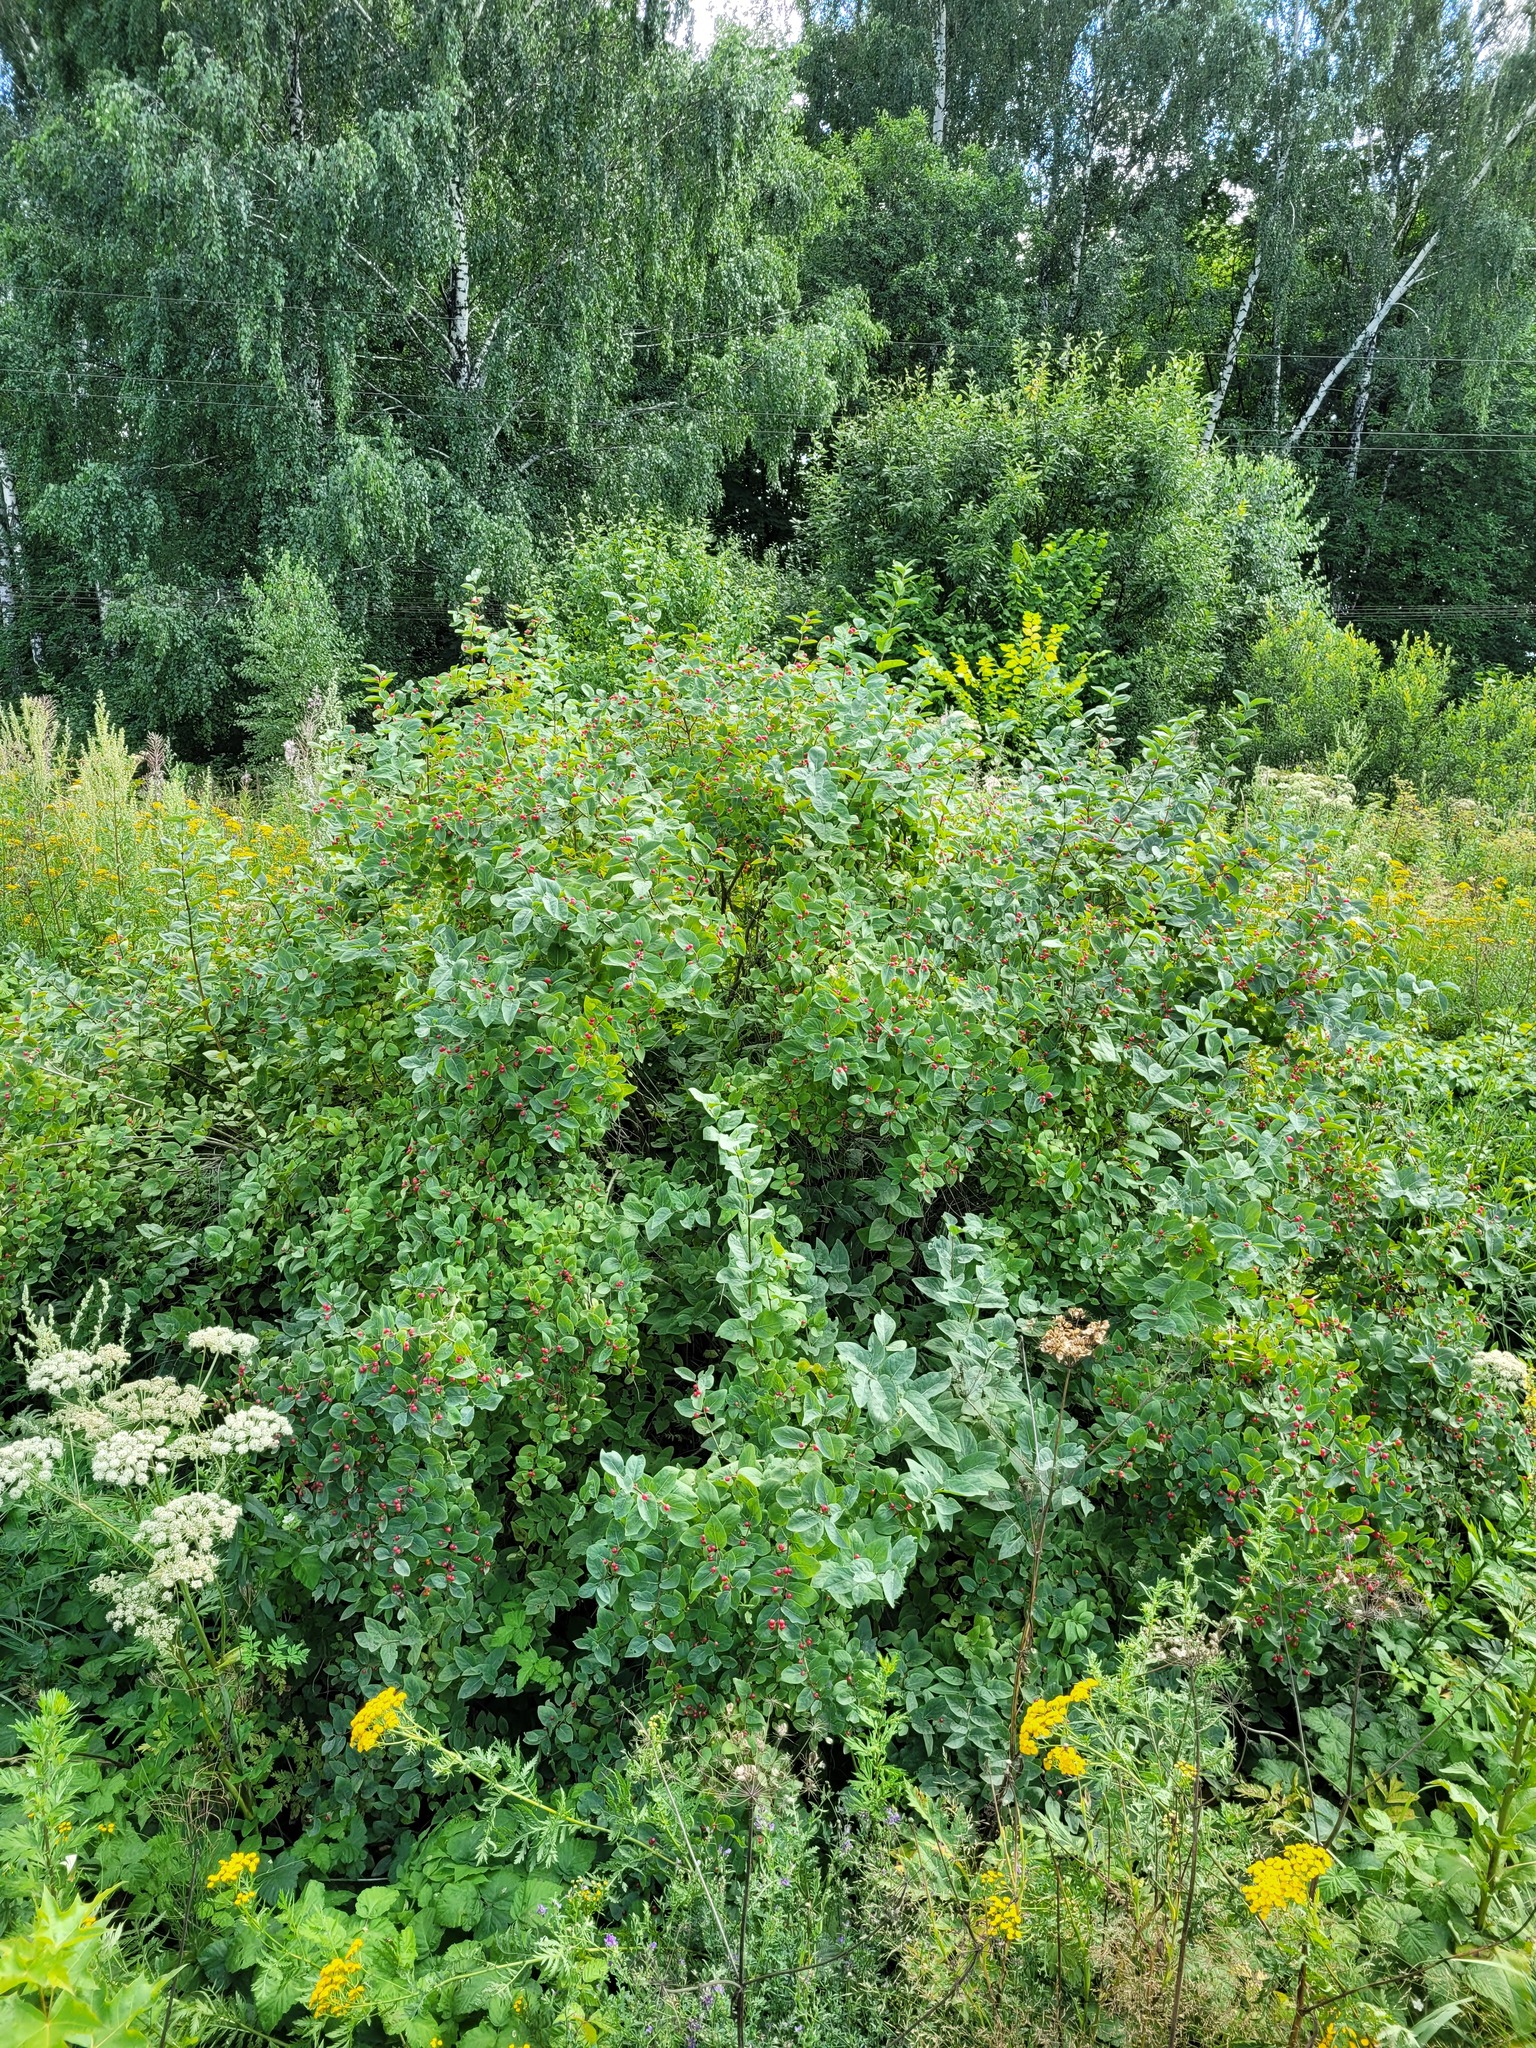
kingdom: Plantae
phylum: Tracheophyta
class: Magnoliopsida
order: Dipsacales
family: Caprifoliaceae
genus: Lonicera
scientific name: Lonicera tatarica
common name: Tatarian honeysuckle
